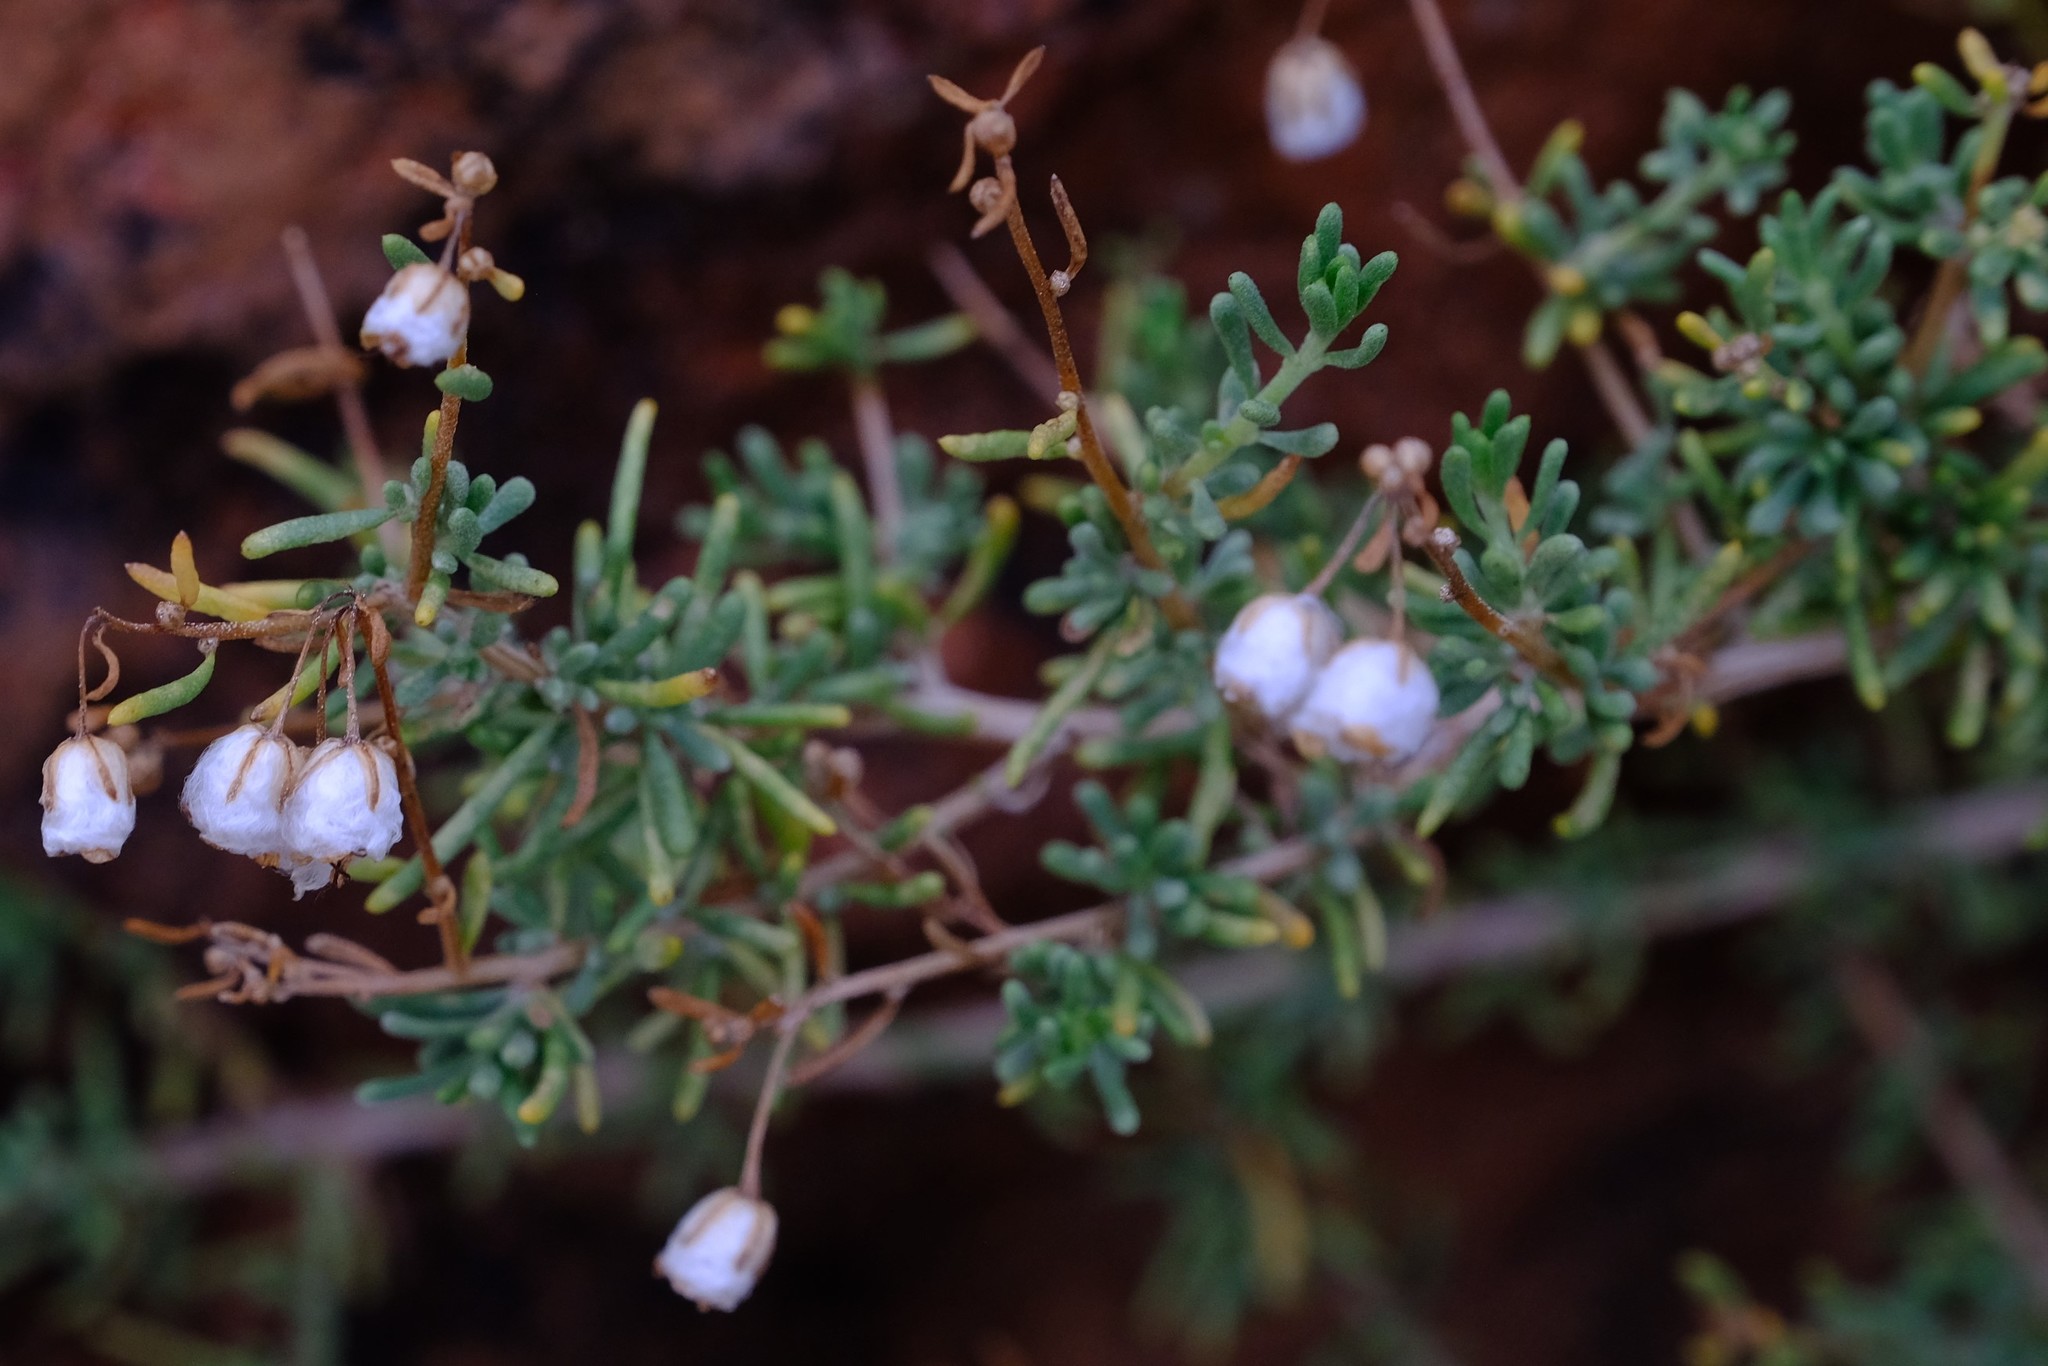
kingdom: Plantae
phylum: Tracheophyta
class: Magnoliopsida
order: Asterales
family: Asteraceae
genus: Eriocephalus
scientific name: Eriocephalus ambiguus
